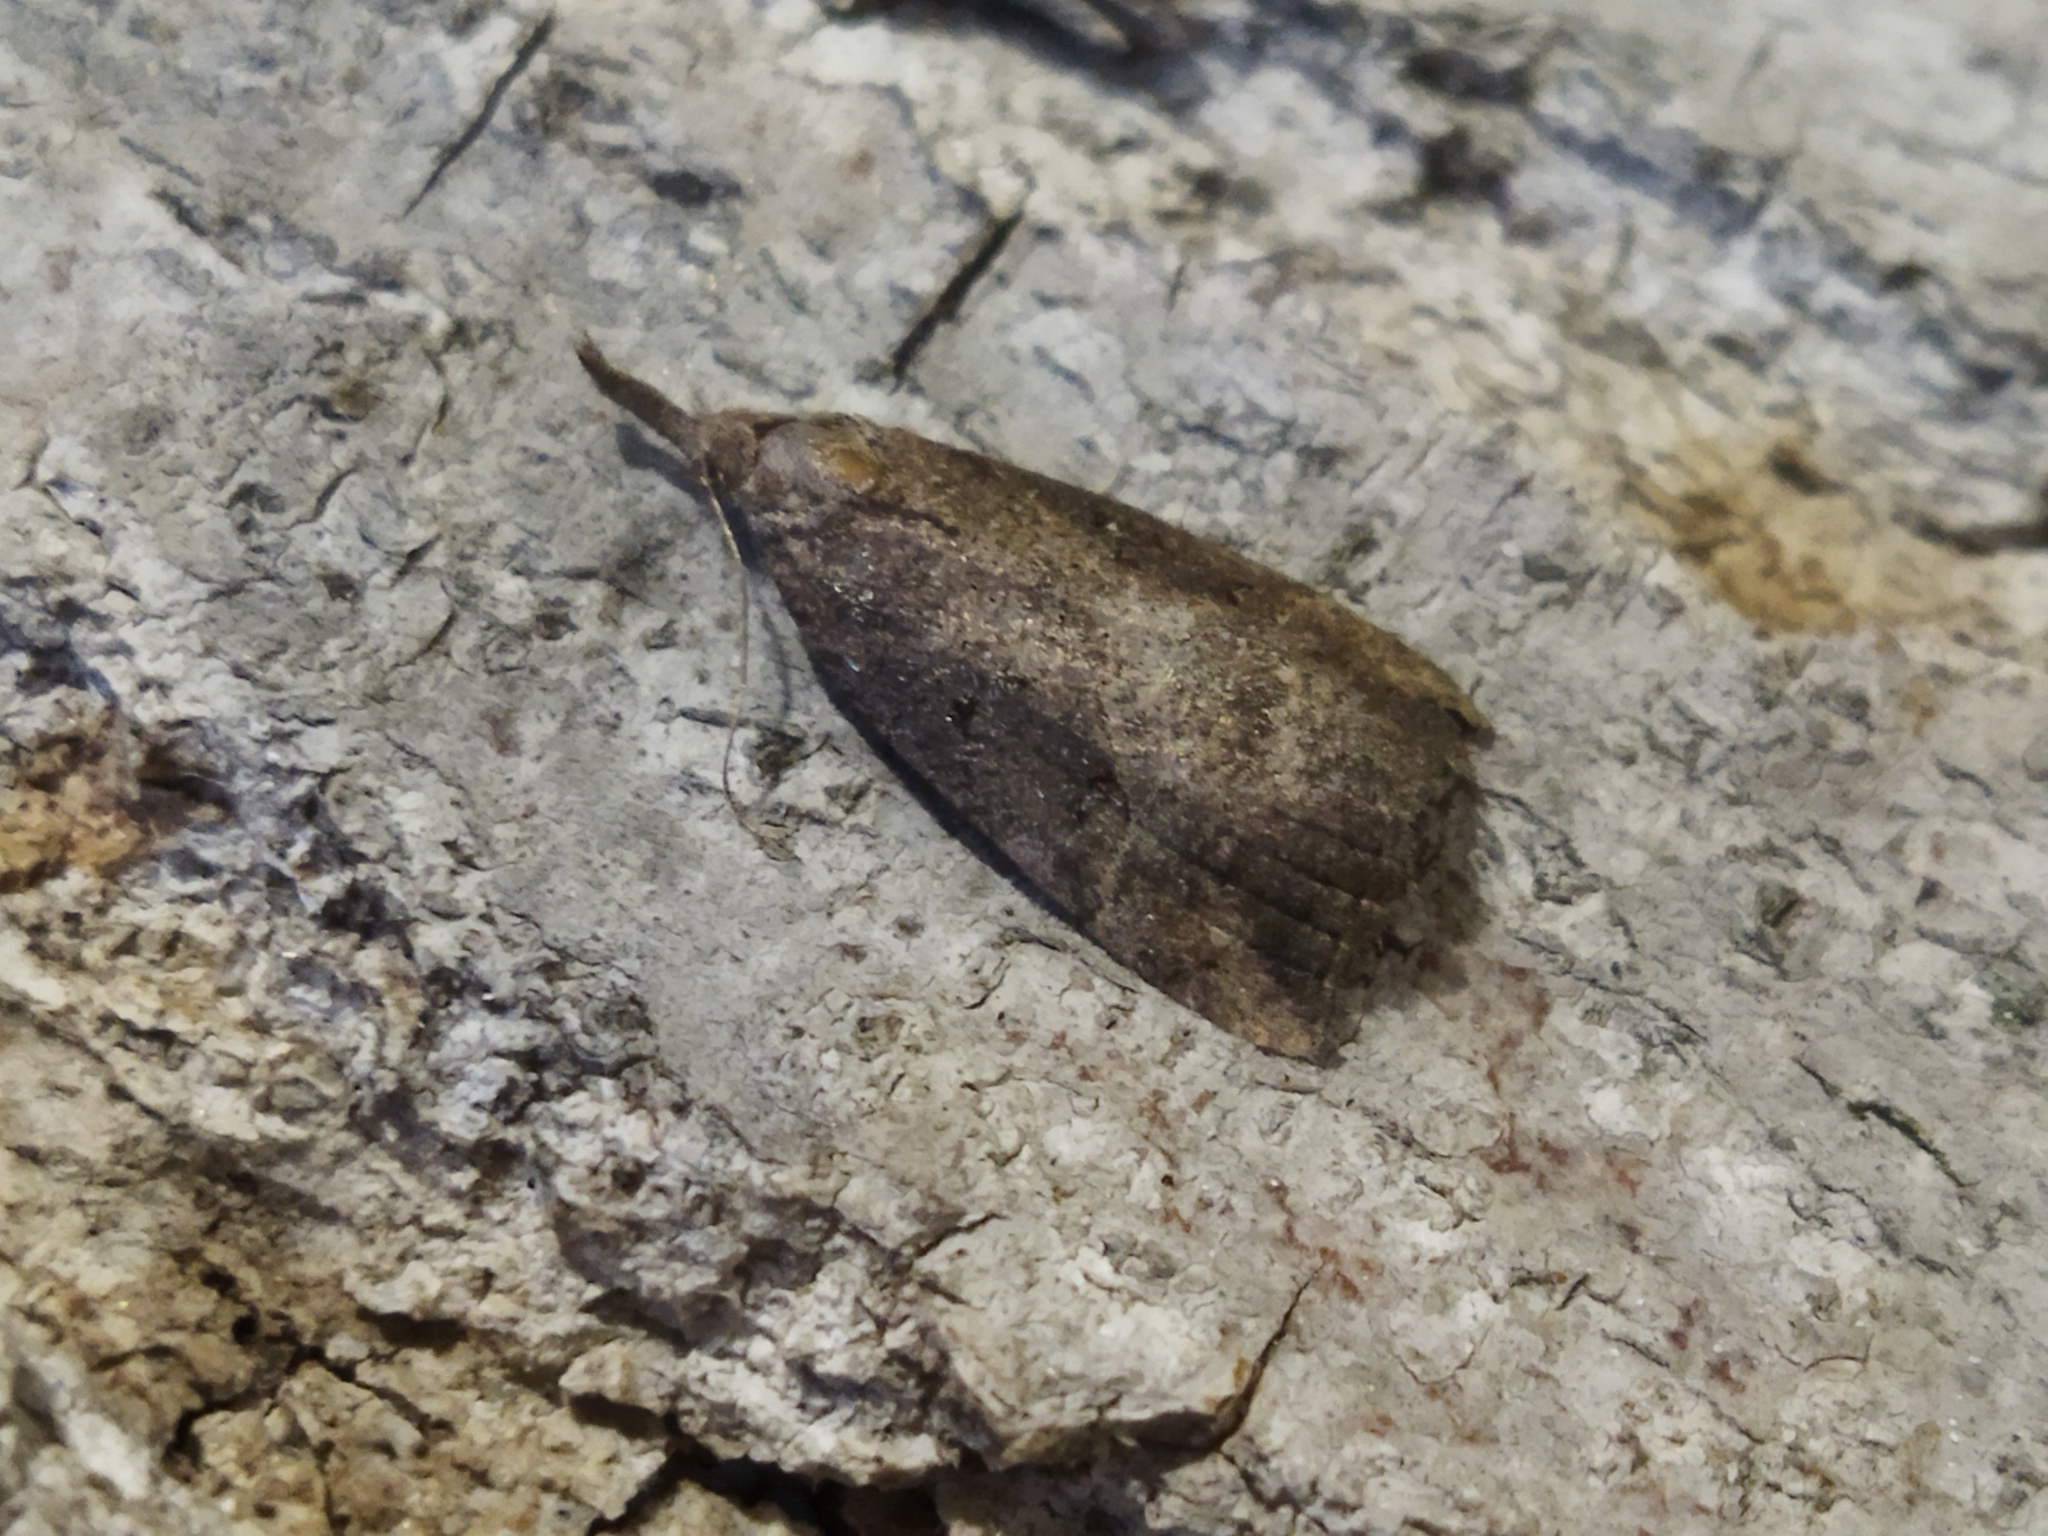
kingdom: Animalia
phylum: Arthropoda
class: Insecta
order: Lepidoptera
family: Erebidae
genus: Hypena
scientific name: Hypena rostralis
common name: Buttoned snout
